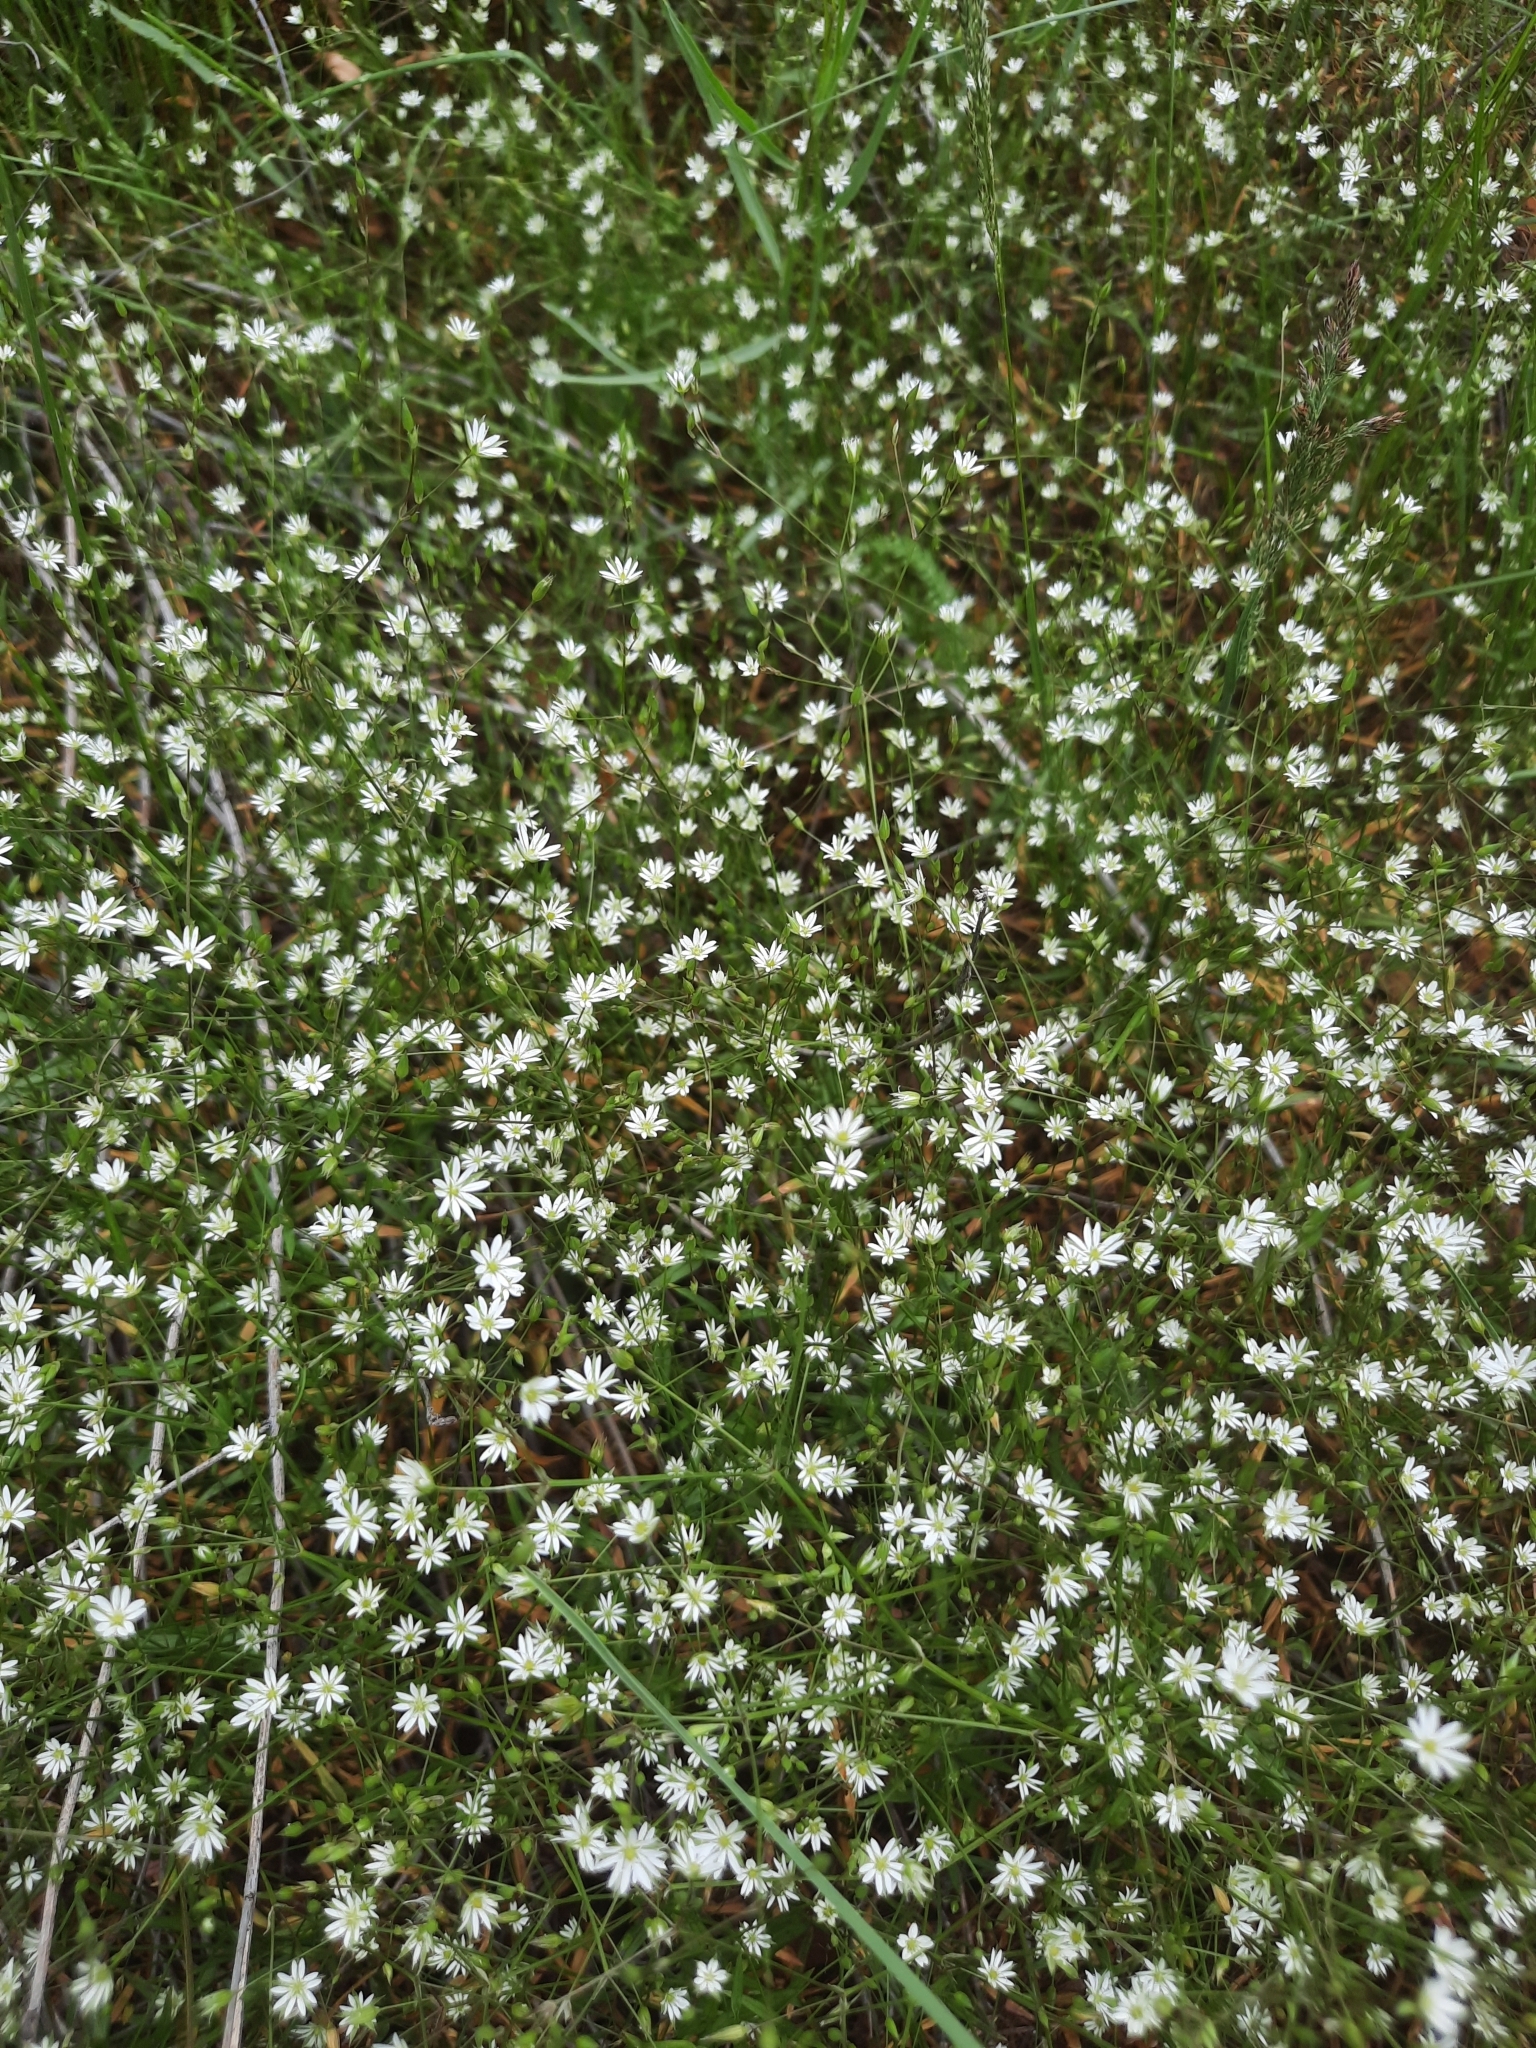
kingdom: Plantae
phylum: Tracheophyta
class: Magnoliopsida
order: Caryophyllales
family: Caryophyllaceae
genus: Stellaria
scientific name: Stellaria graminea
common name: Grass-like starwort
